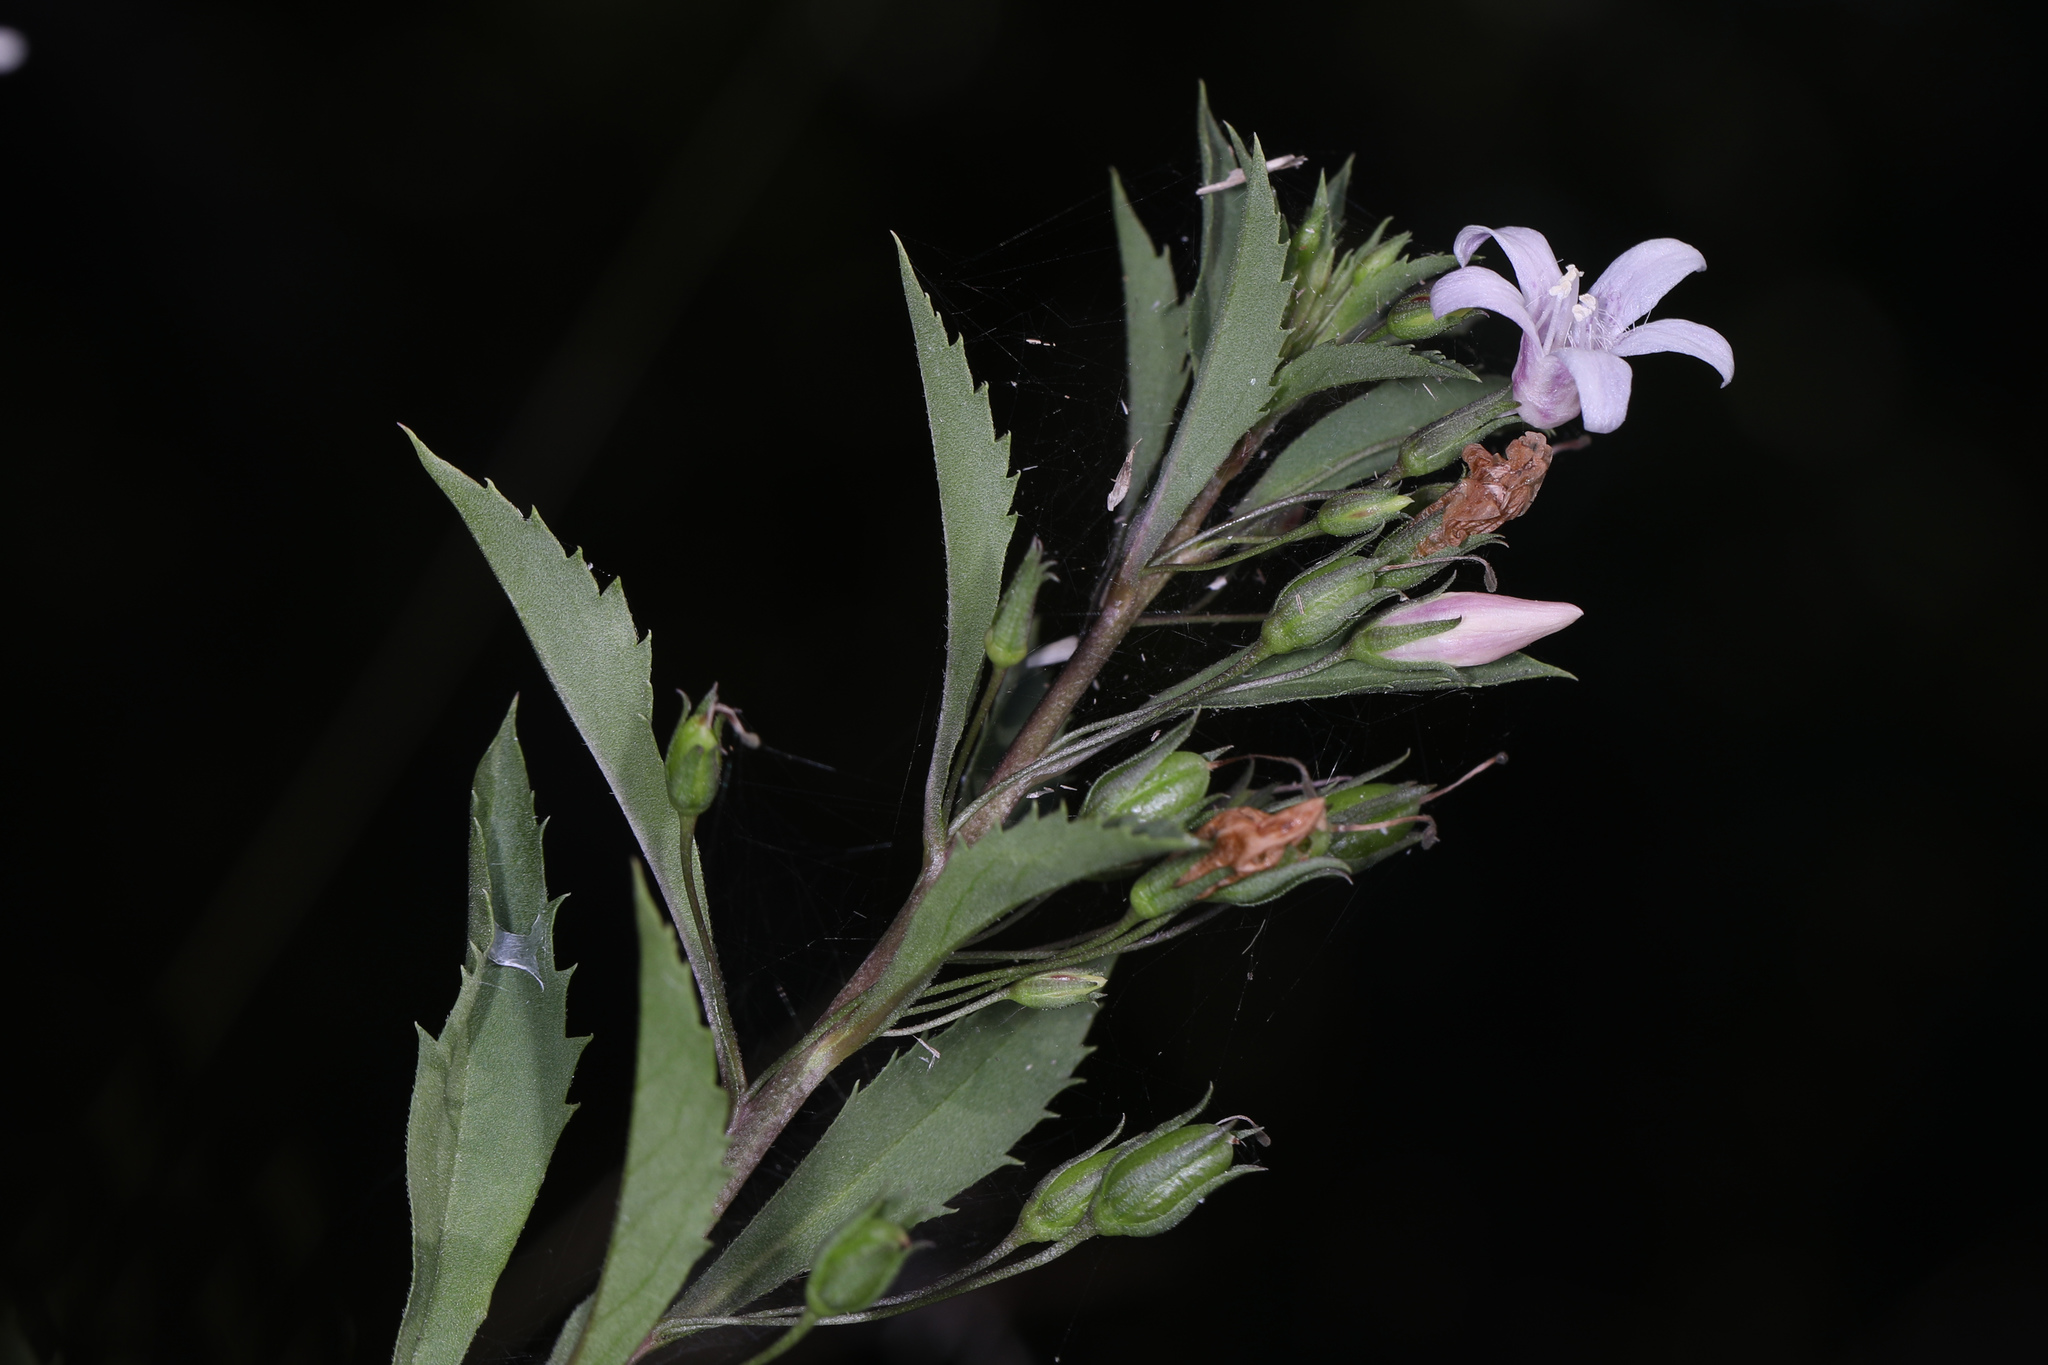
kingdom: Plantae
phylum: Tracheophyta
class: Magnoliopsida
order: Lamiales
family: Scrophulariaceae
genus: Capraria
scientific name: Capraria biflora
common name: Goatweed
